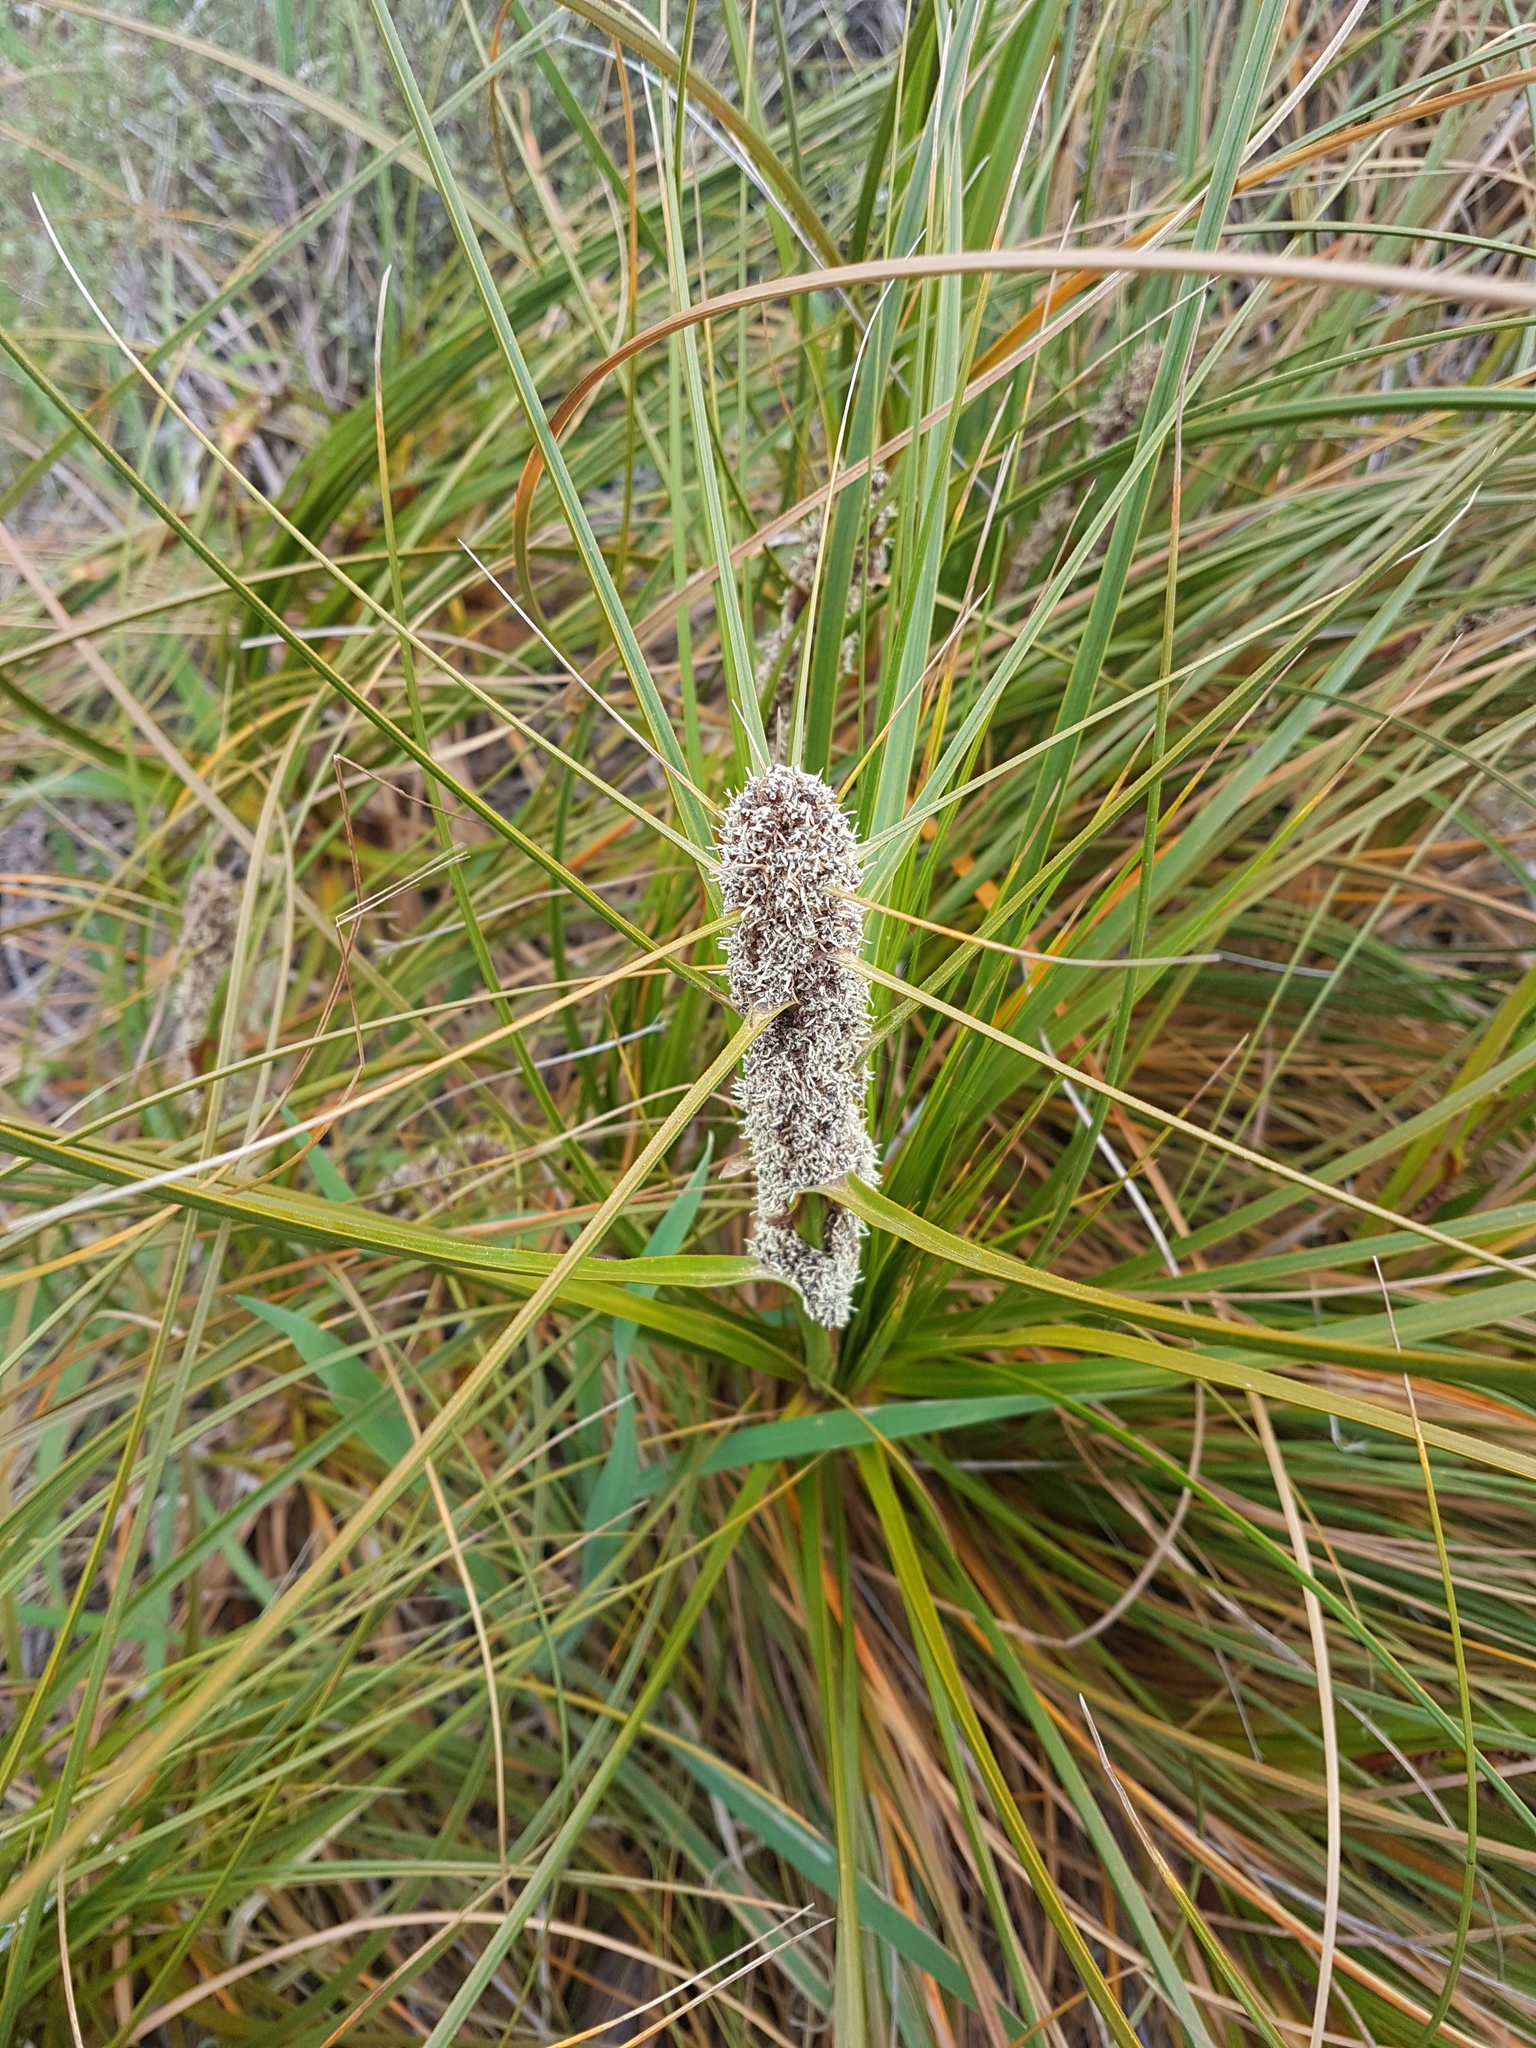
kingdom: Plantae
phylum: Tracheophyta
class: Liliopsida
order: Poales
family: Cyperaceae
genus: Ficinia
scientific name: Ficinia spiralis
